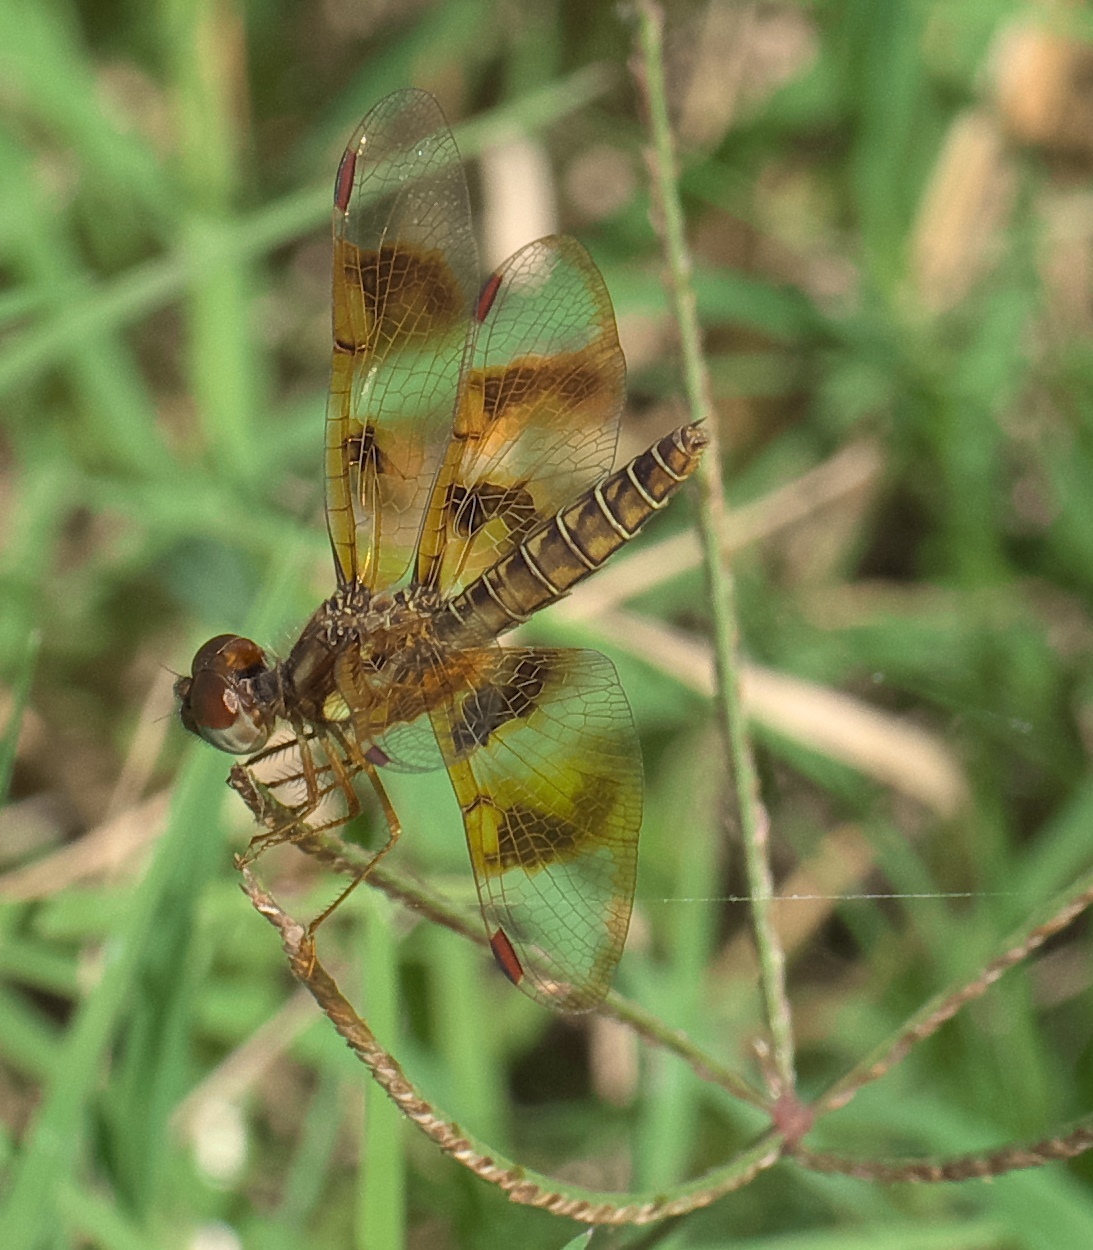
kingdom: Animalia
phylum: Arthropoda
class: Insecta
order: Odonata
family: Libellulidae
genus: Perithemis
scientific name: Perithemis tenera
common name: Eastern amberwing
